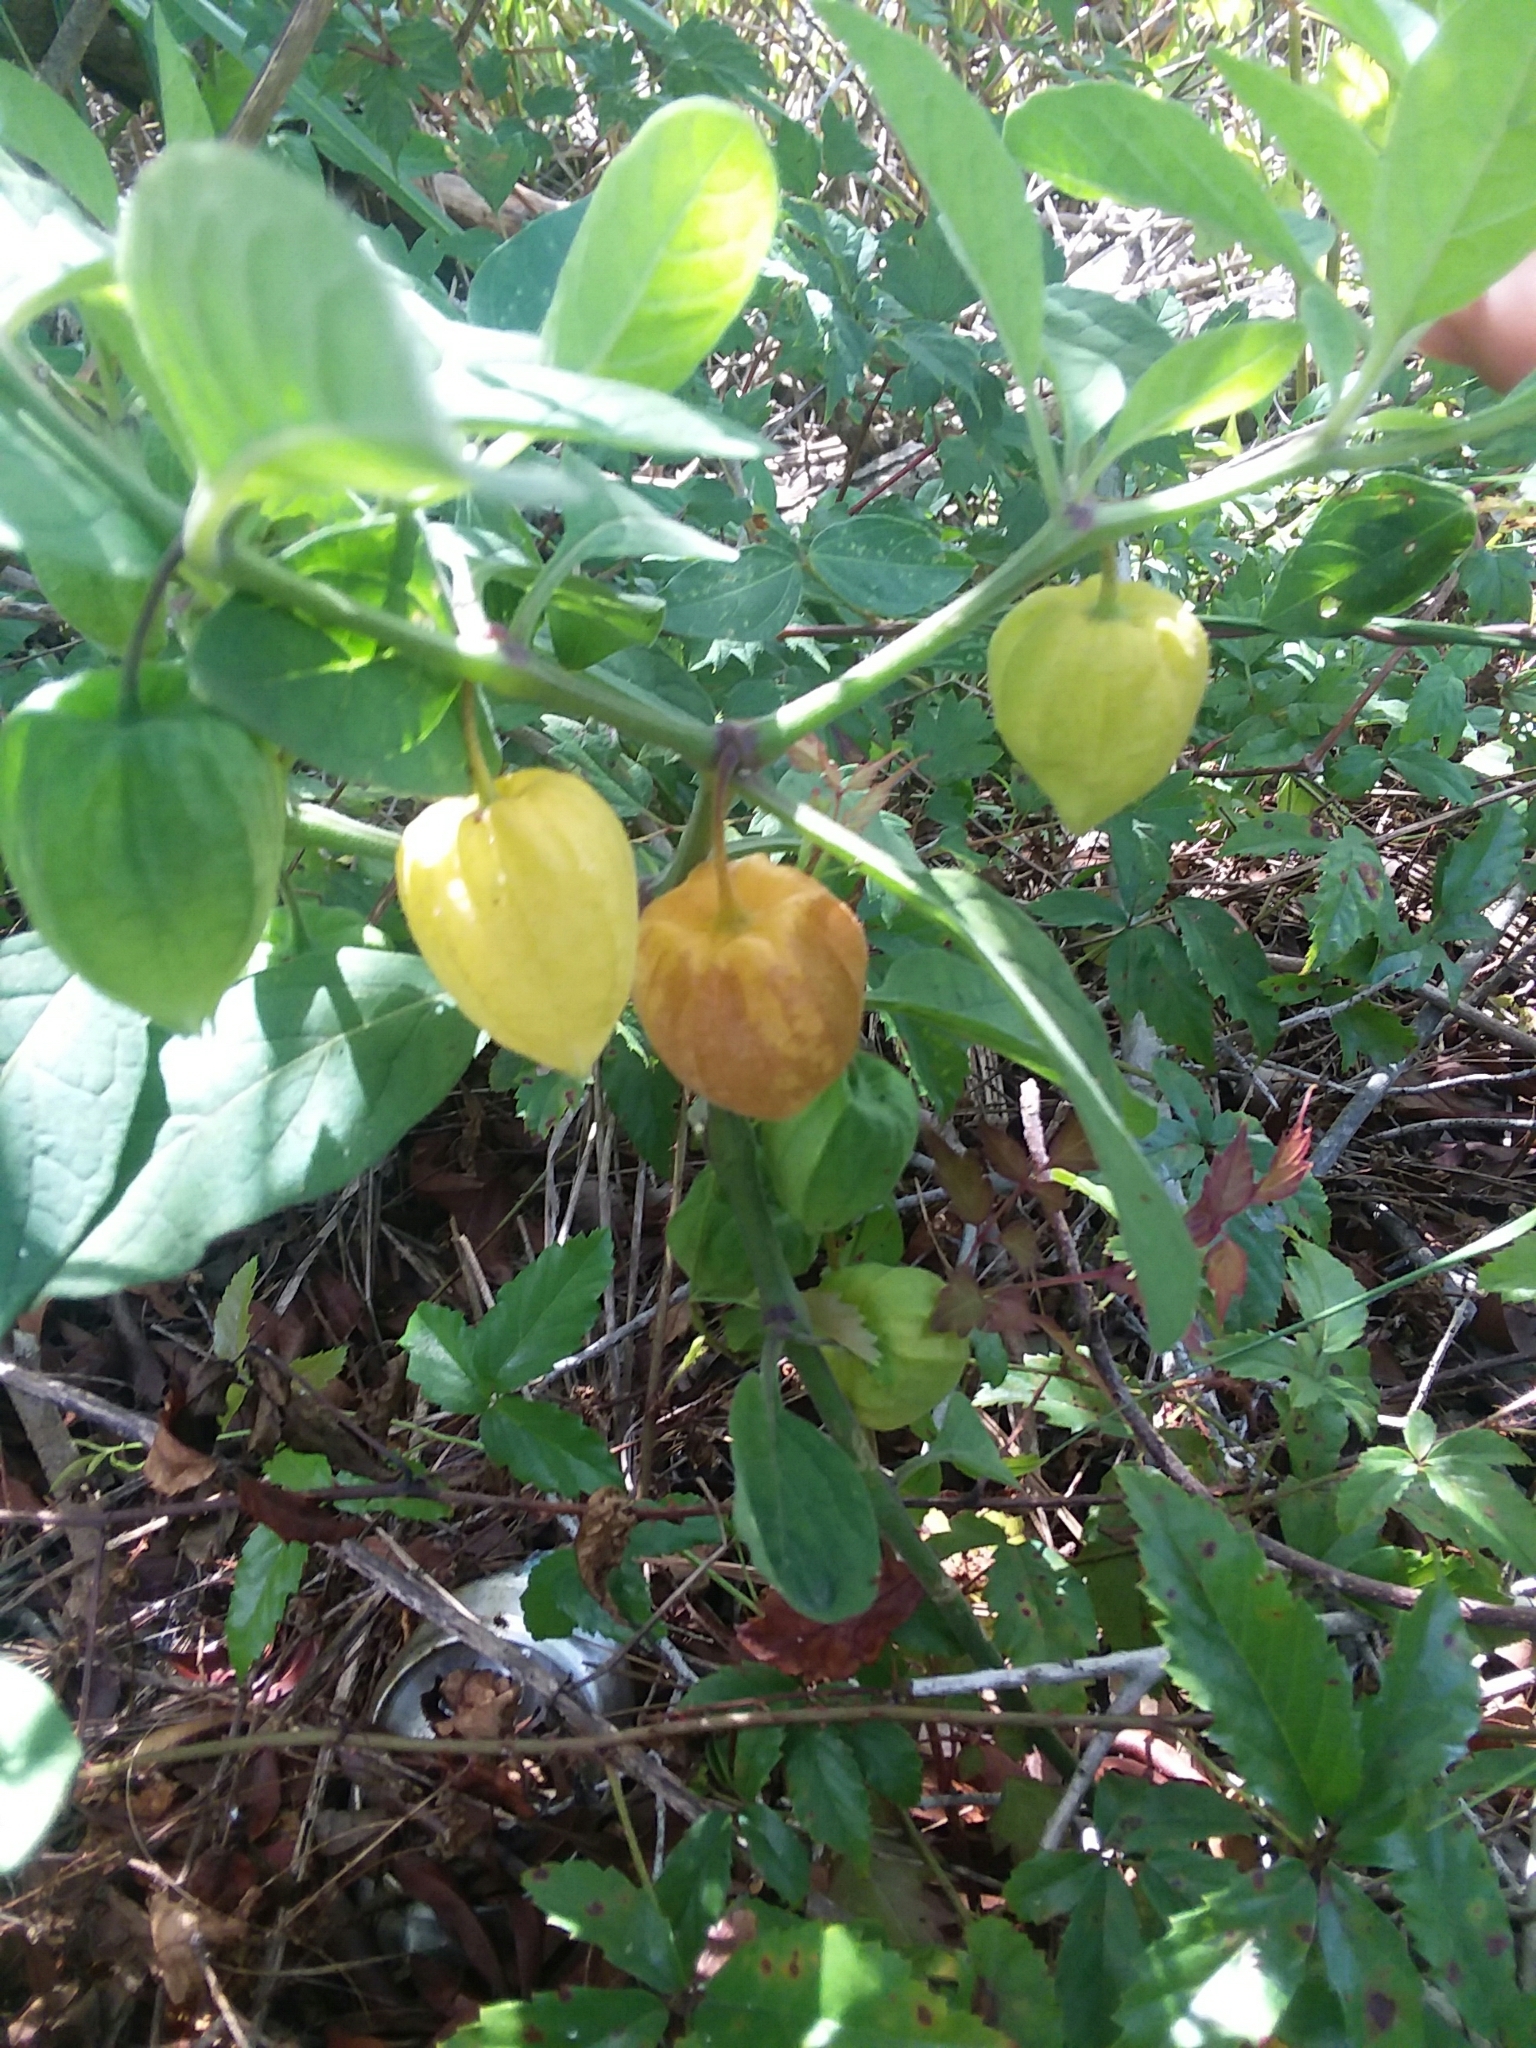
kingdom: Plantae
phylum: Tracheophyta
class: Magnoliopsida
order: Solanales
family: Solanaceae
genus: Physalis
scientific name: Physalis walteri
